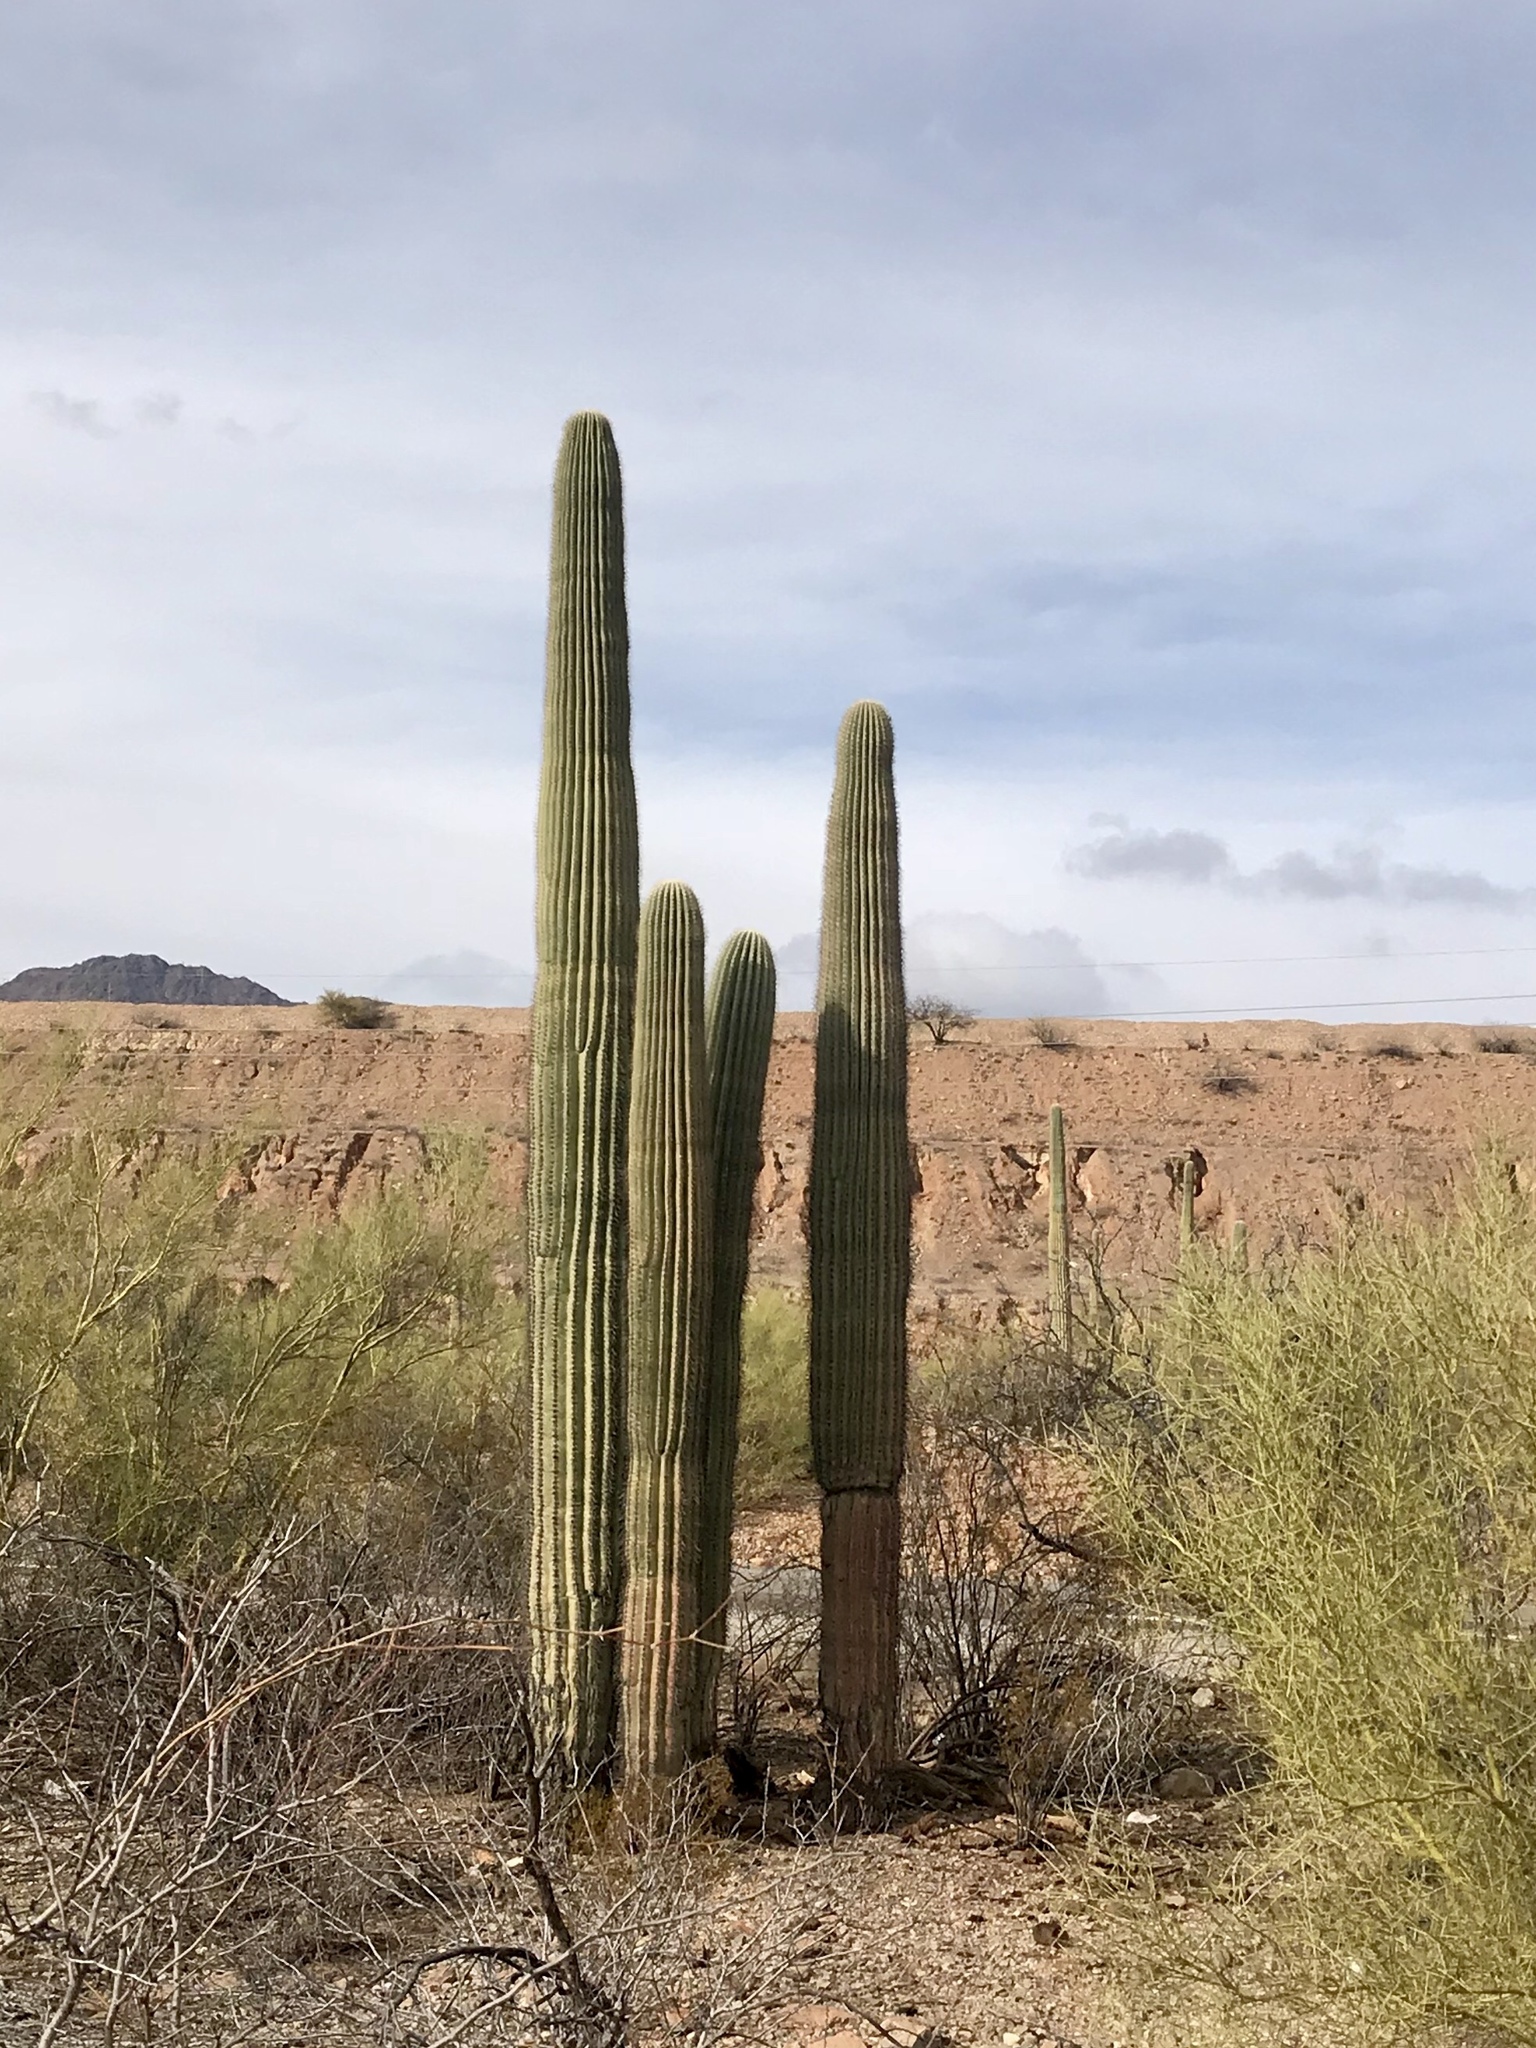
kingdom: Plantae
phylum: Tracheophyta
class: Magnoliopsida
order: Caryophyllales
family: Cactaceae
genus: Carnegiea
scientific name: Carnegiea gigantea
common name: Saguaro
